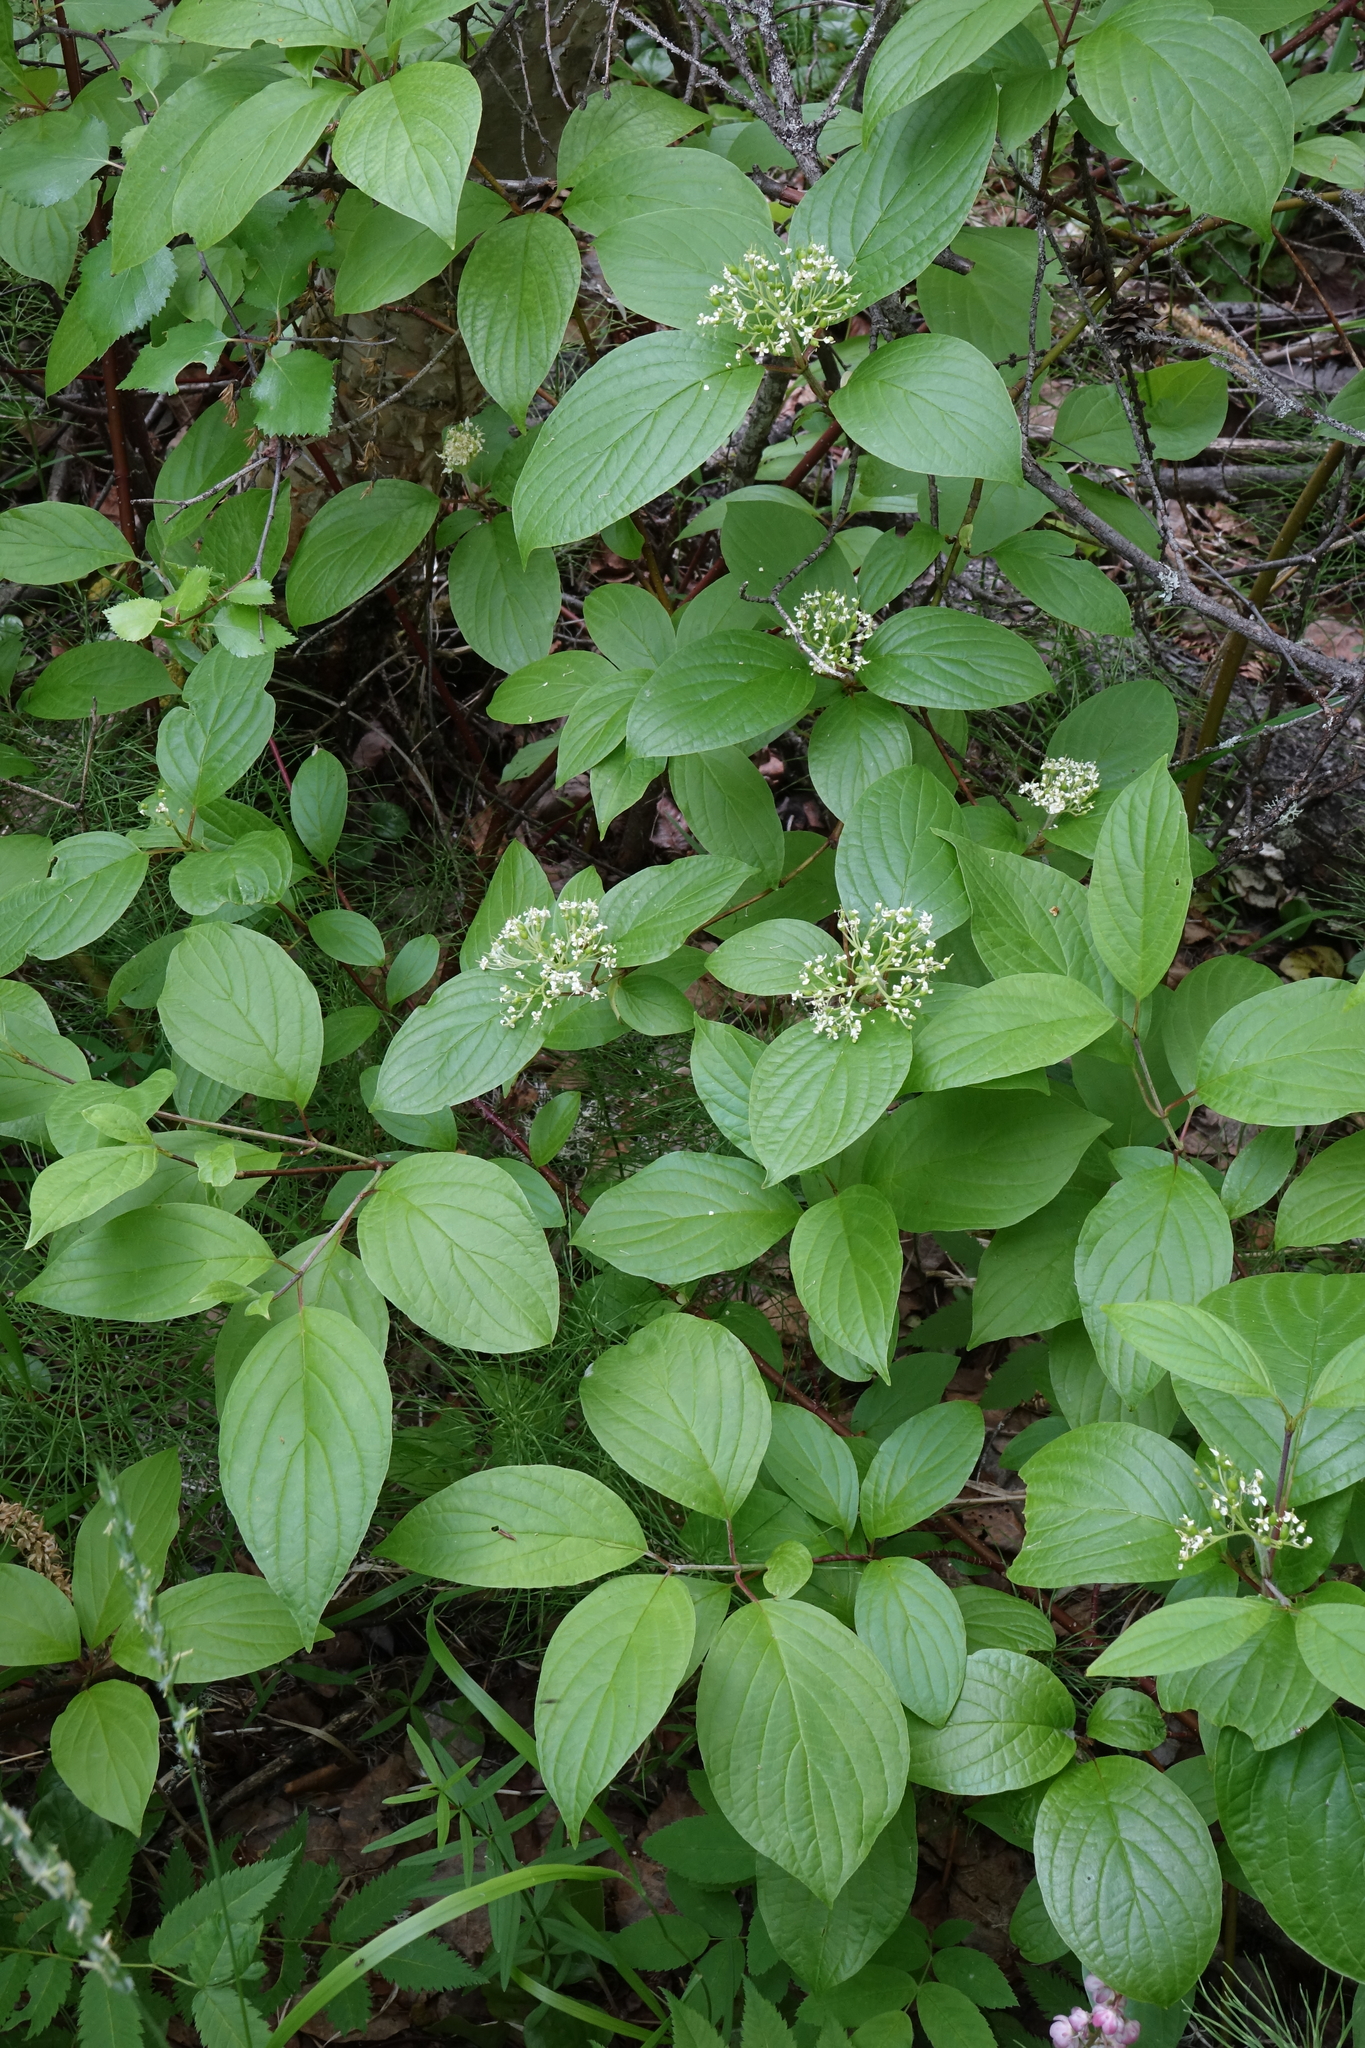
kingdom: Plantae
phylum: Tracheophyta
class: Magnoliopsida
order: Cornales
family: Cornaceae
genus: Cornus
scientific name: Cornus alba
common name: White dogwood
